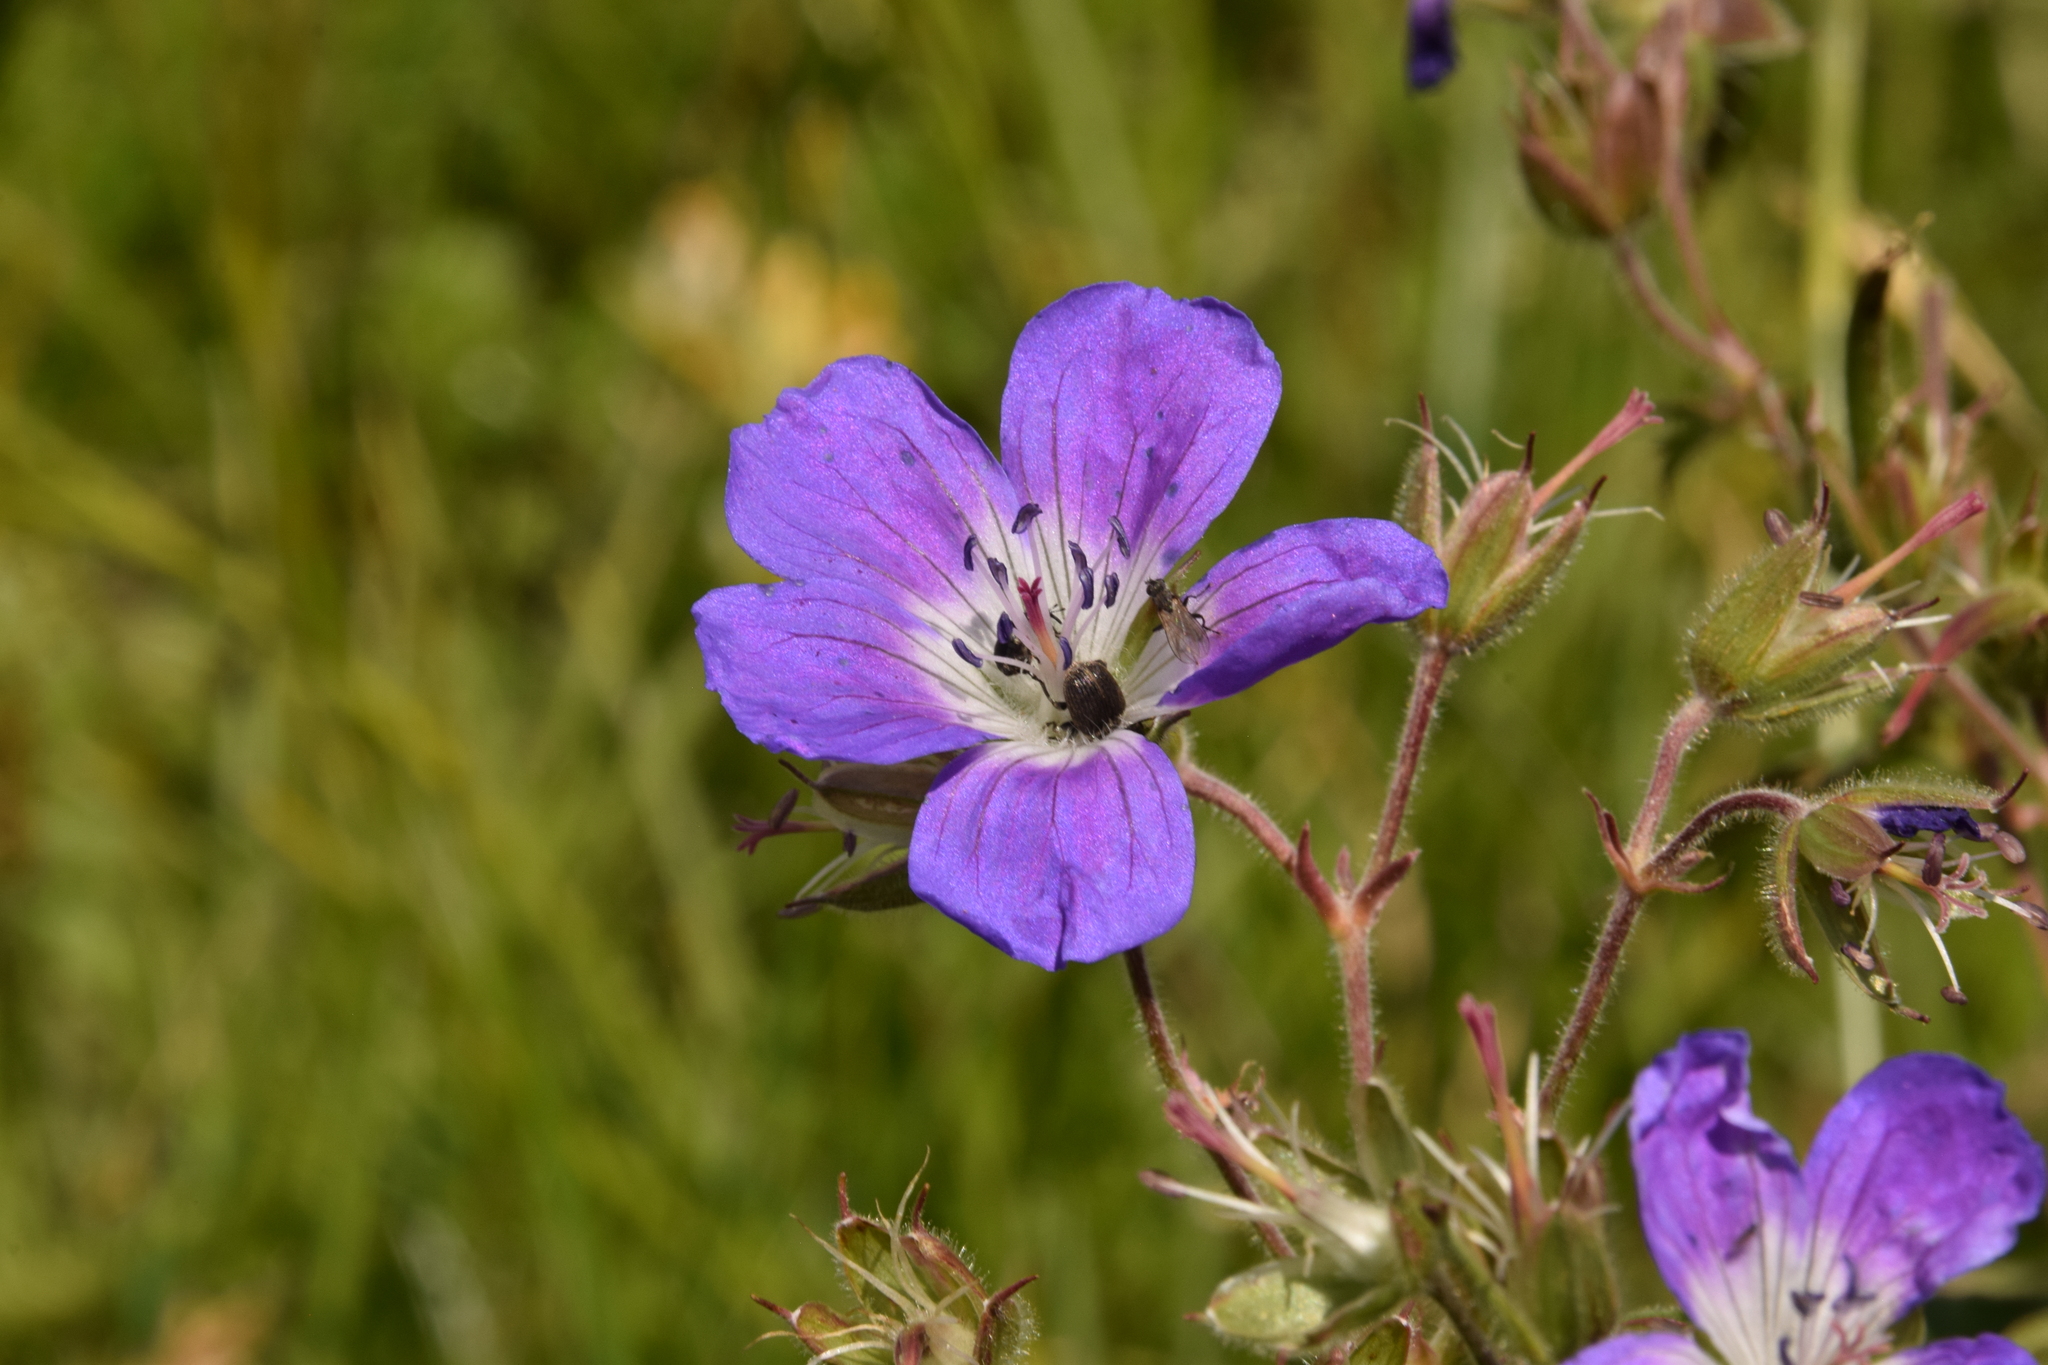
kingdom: Plantae
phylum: Tracheophyta
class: Magnoliopsida
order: Geraniales
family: Geraniaceae
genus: Geranium
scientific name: Geranium sylvaticum
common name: Wood crane's-bill
